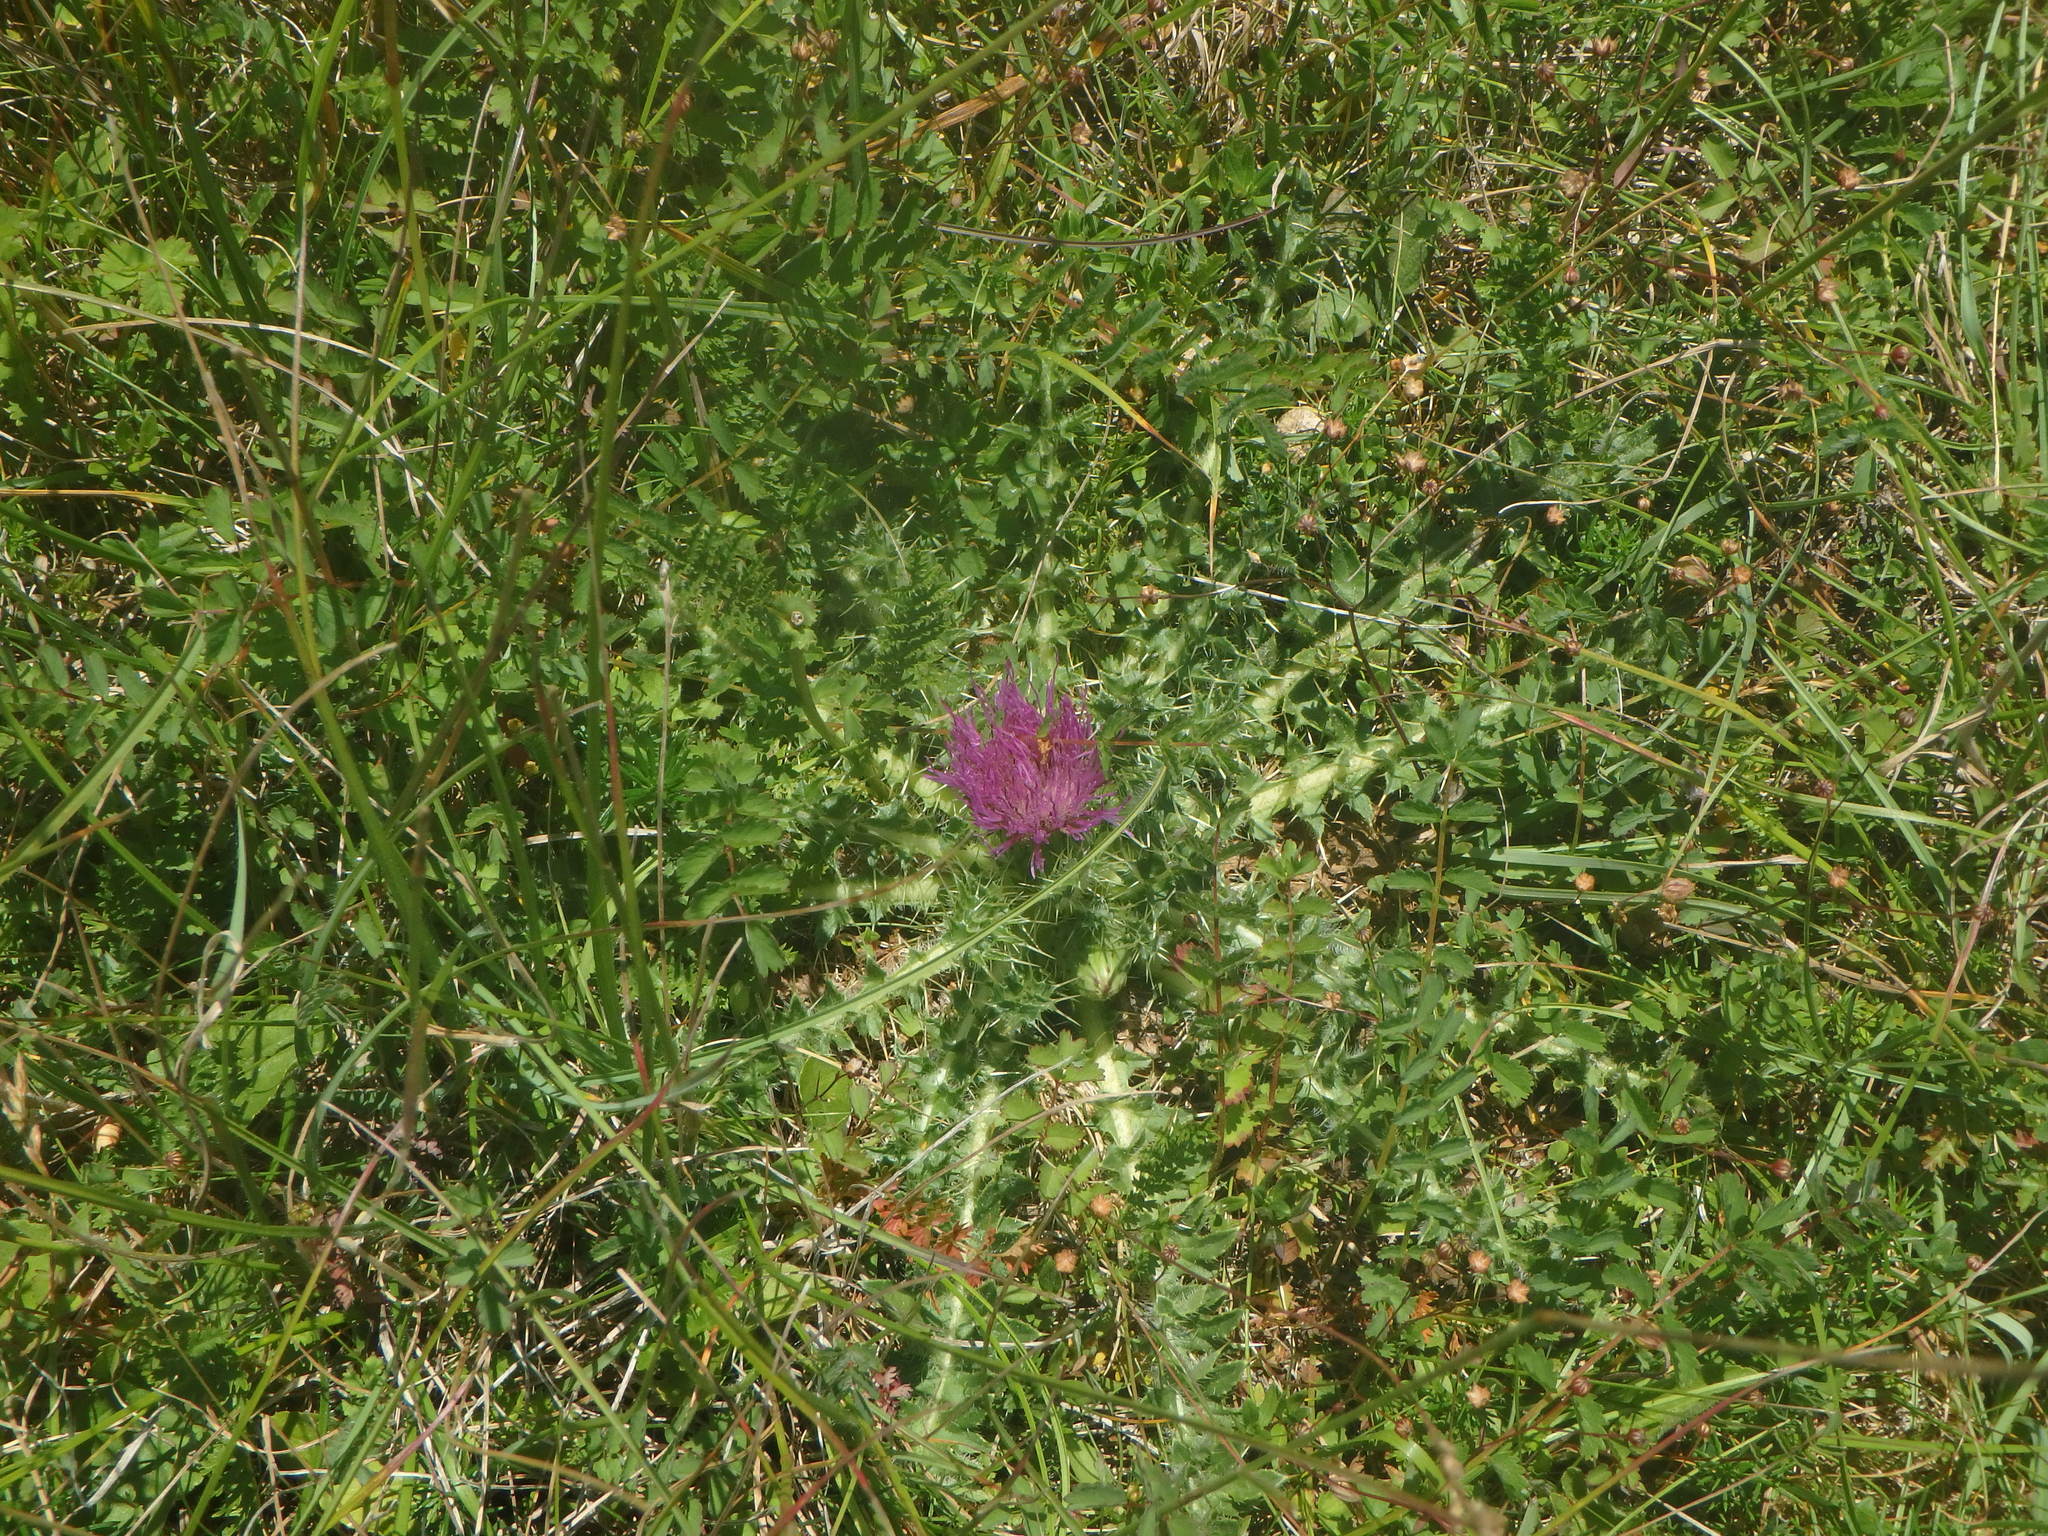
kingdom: Plantae
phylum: Tracheophyta
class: Magnoliopsida
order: Asterales
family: Asteraceae
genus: Cirsium
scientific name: Cirsium acaulon
